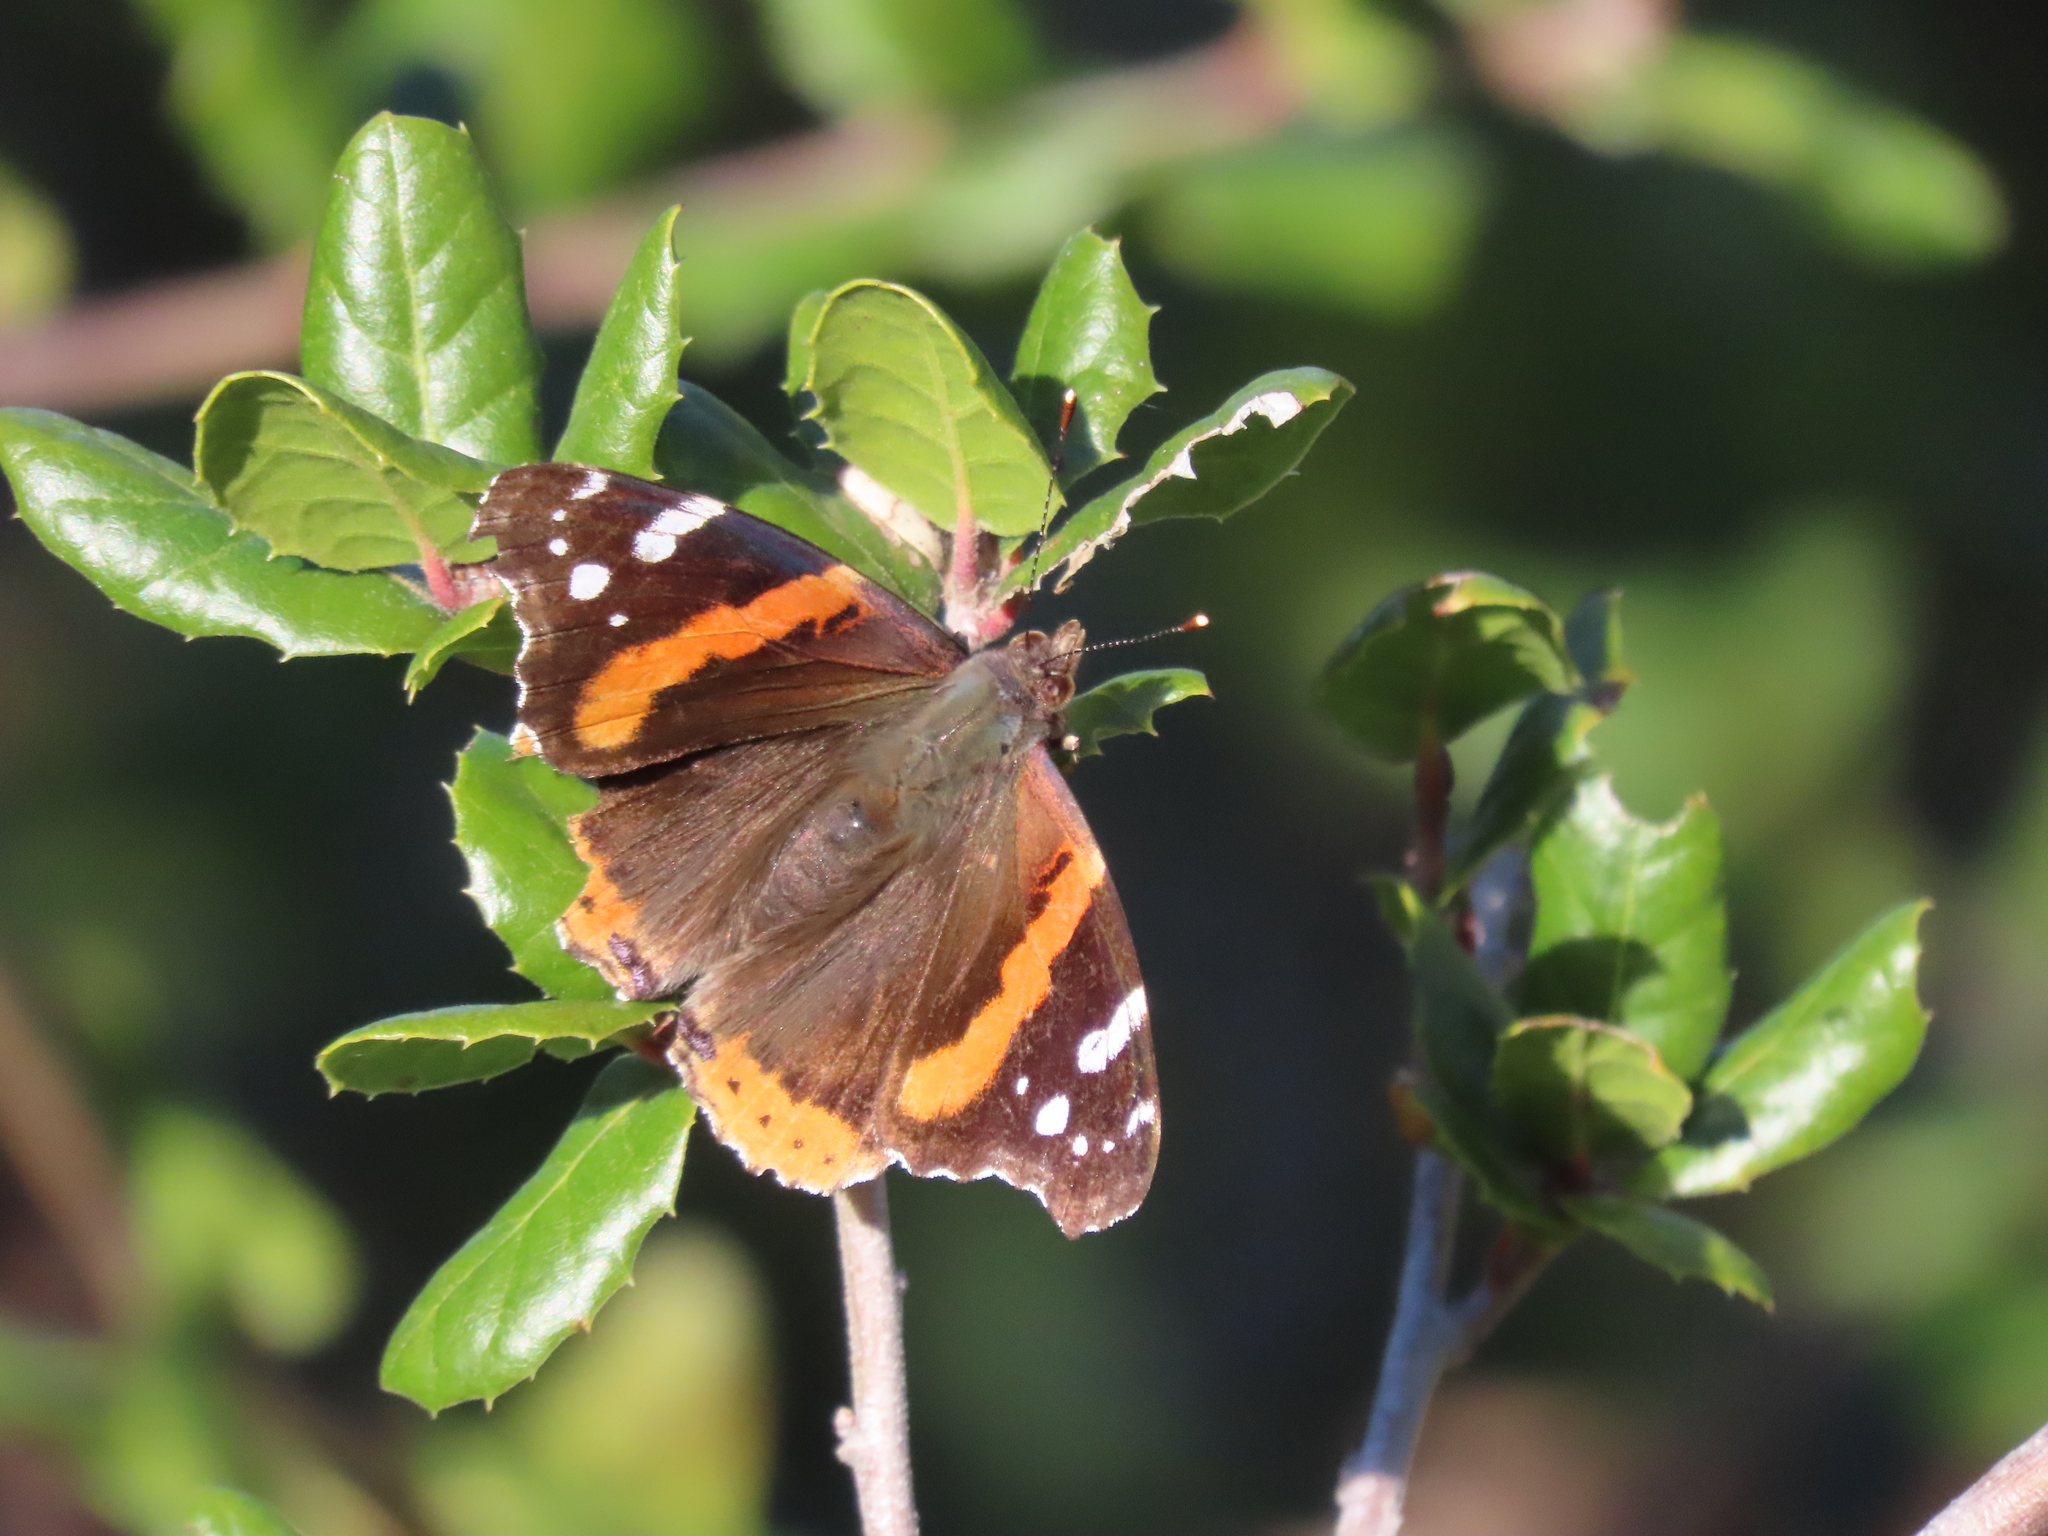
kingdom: Animalia
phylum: Arthropoda
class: Insecta
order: Lepidoptera
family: Nymphalidae
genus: Vanessa
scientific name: Vanessa atalanta
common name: Red admiral
